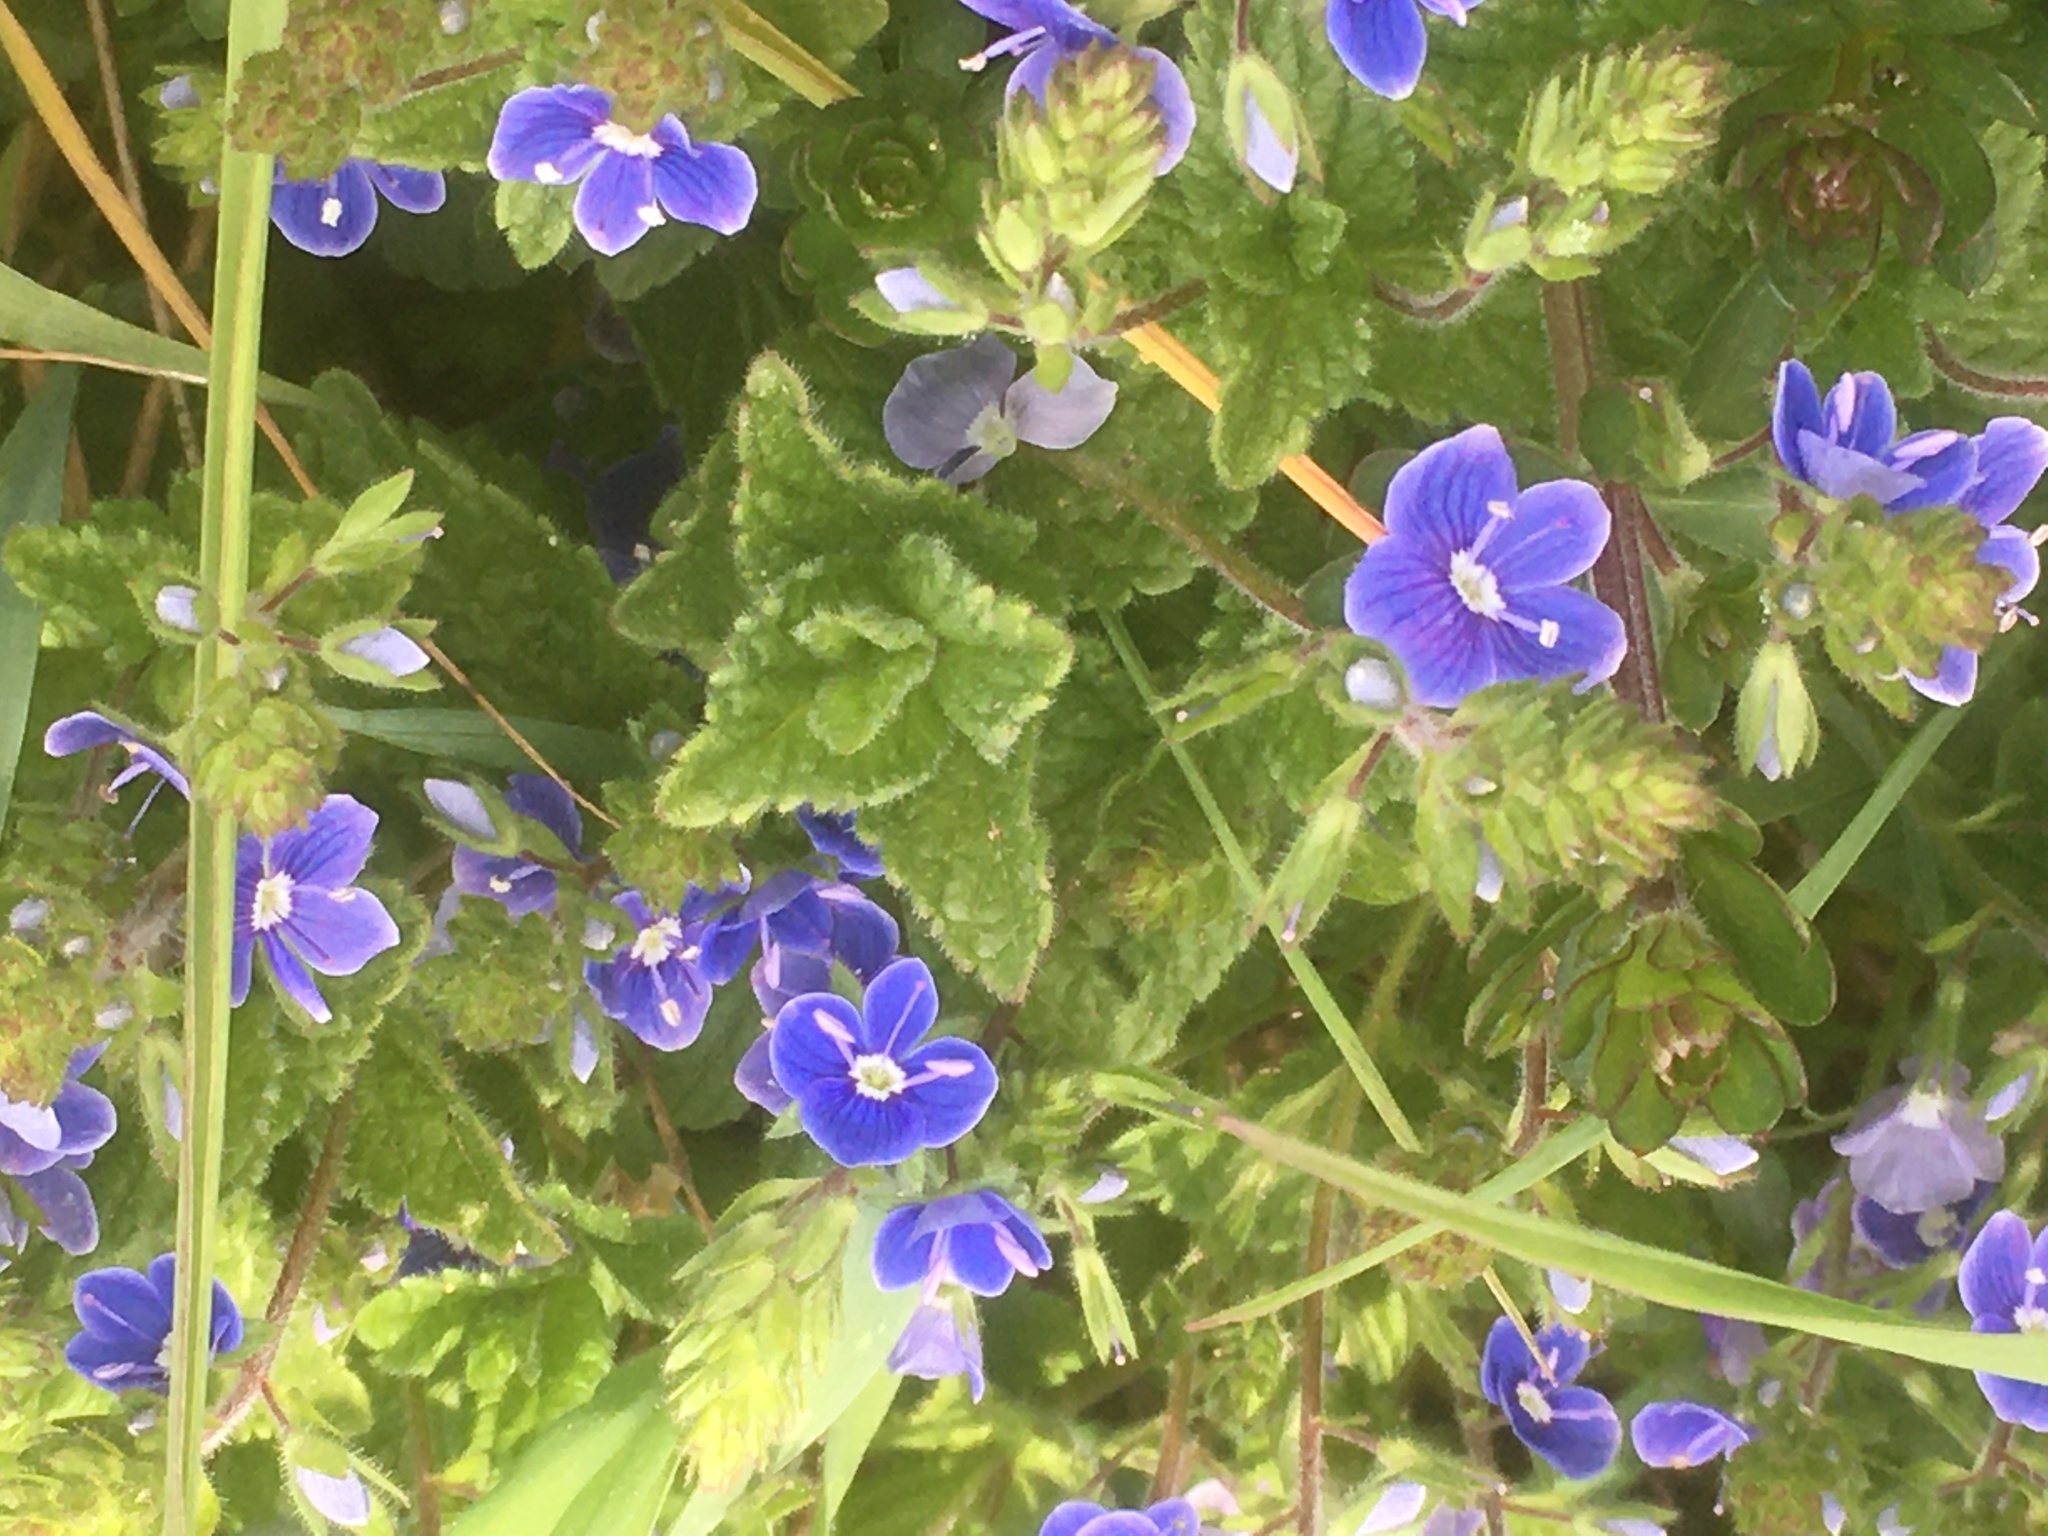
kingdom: Plantae
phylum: Tracheophyta
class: Magnoliopsida
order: Lamiales
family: Plantaginaceae
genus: Veronica
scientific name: Veronica chamaedrys
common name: Germander speedwell
